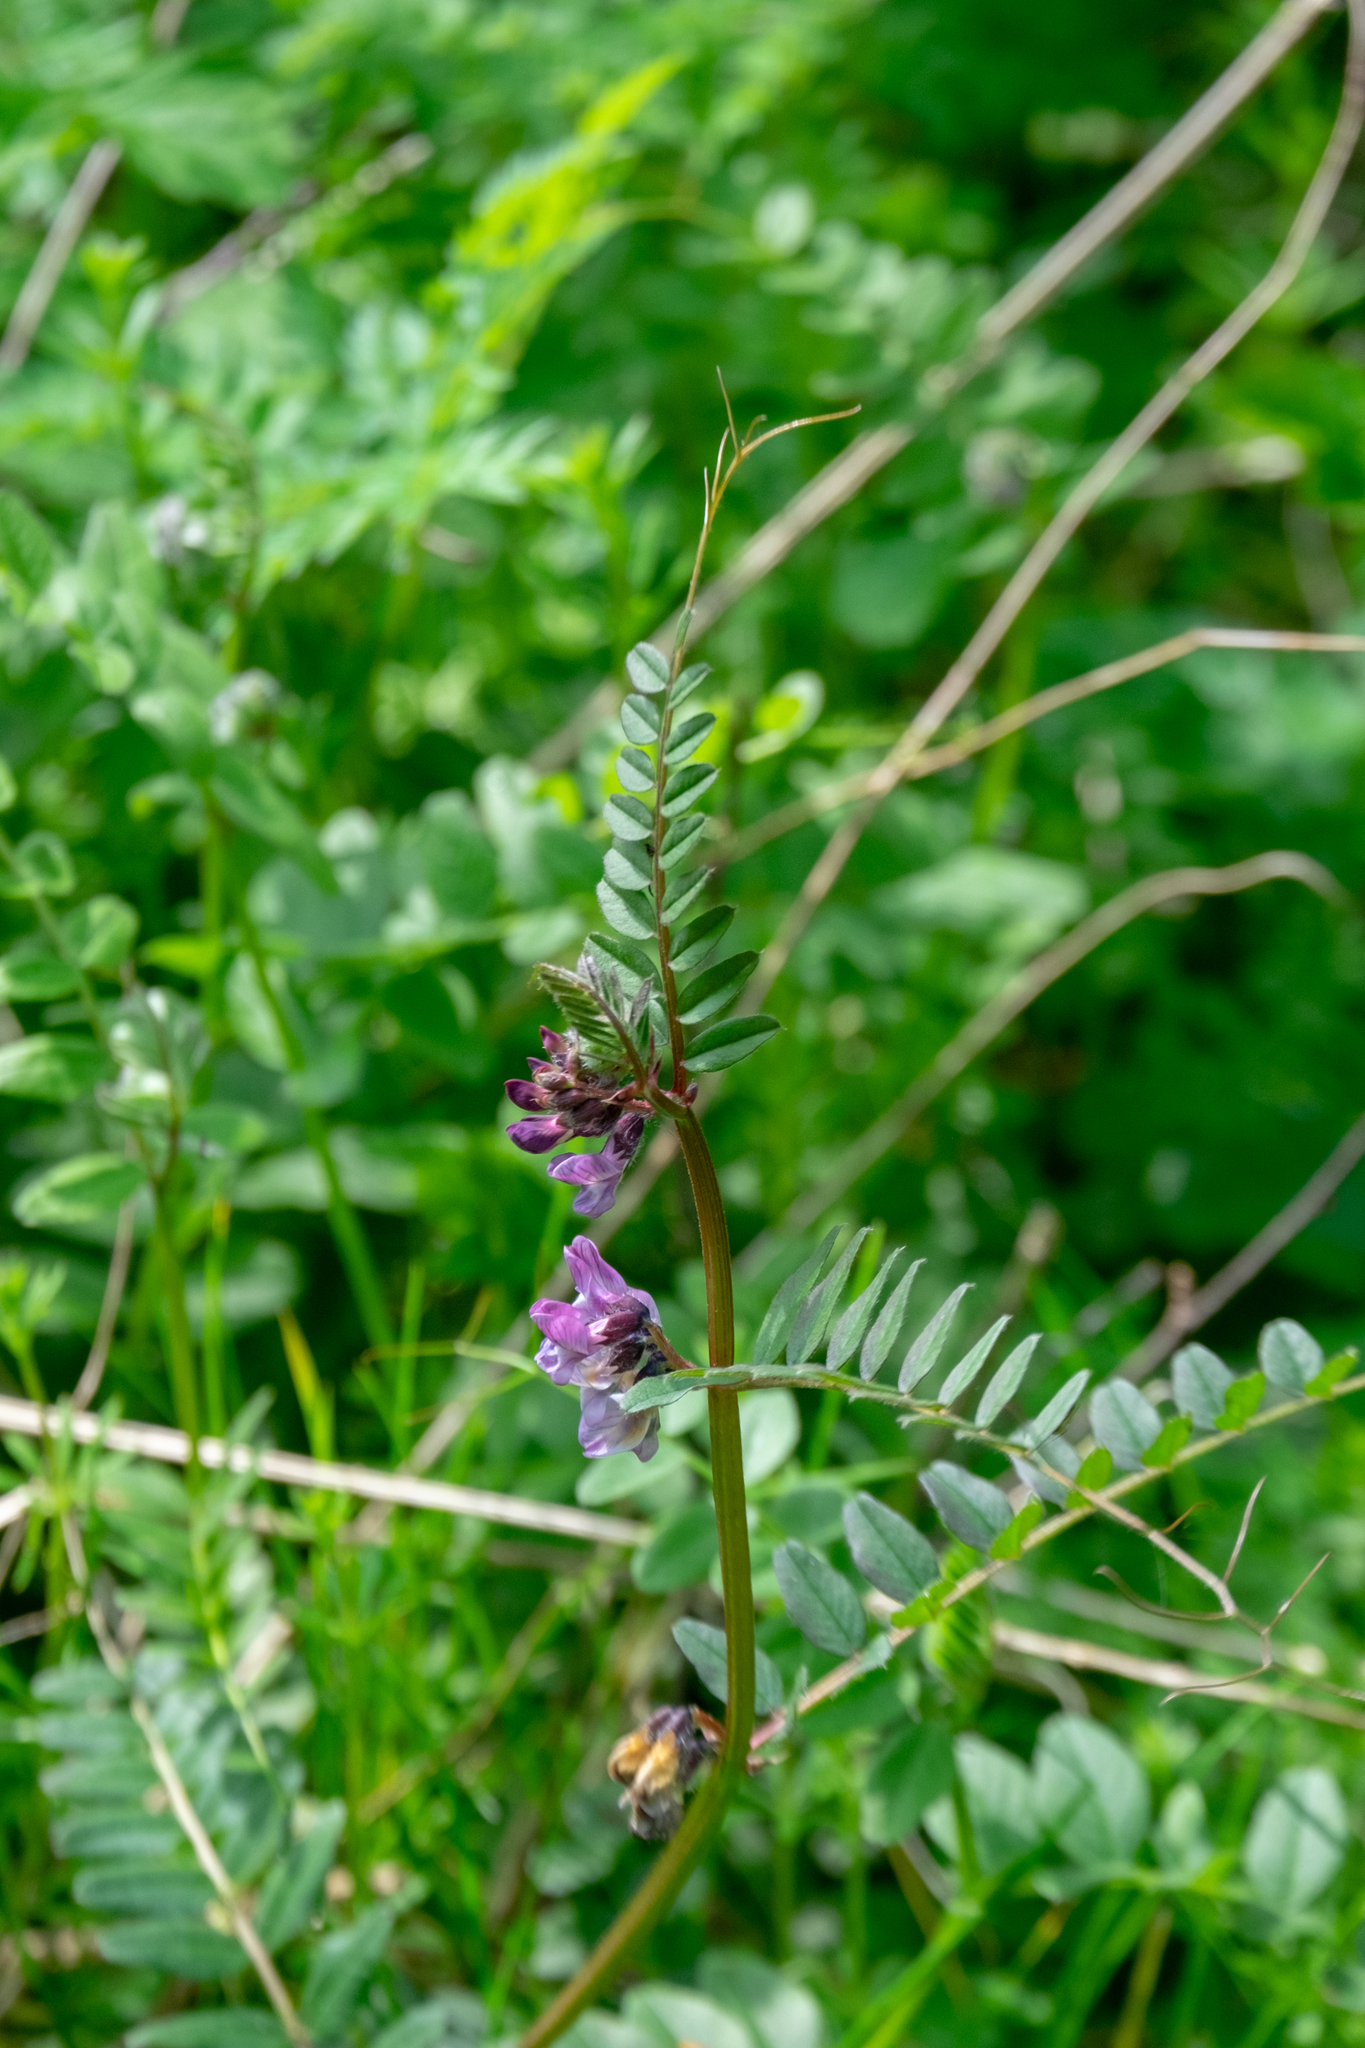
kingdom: Plantae
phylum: Tracheophyta
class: Magnoliopsida
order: Fabales
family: Fabaceae
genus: Vicia
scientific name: Vicia sepium
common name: Bush vetch
